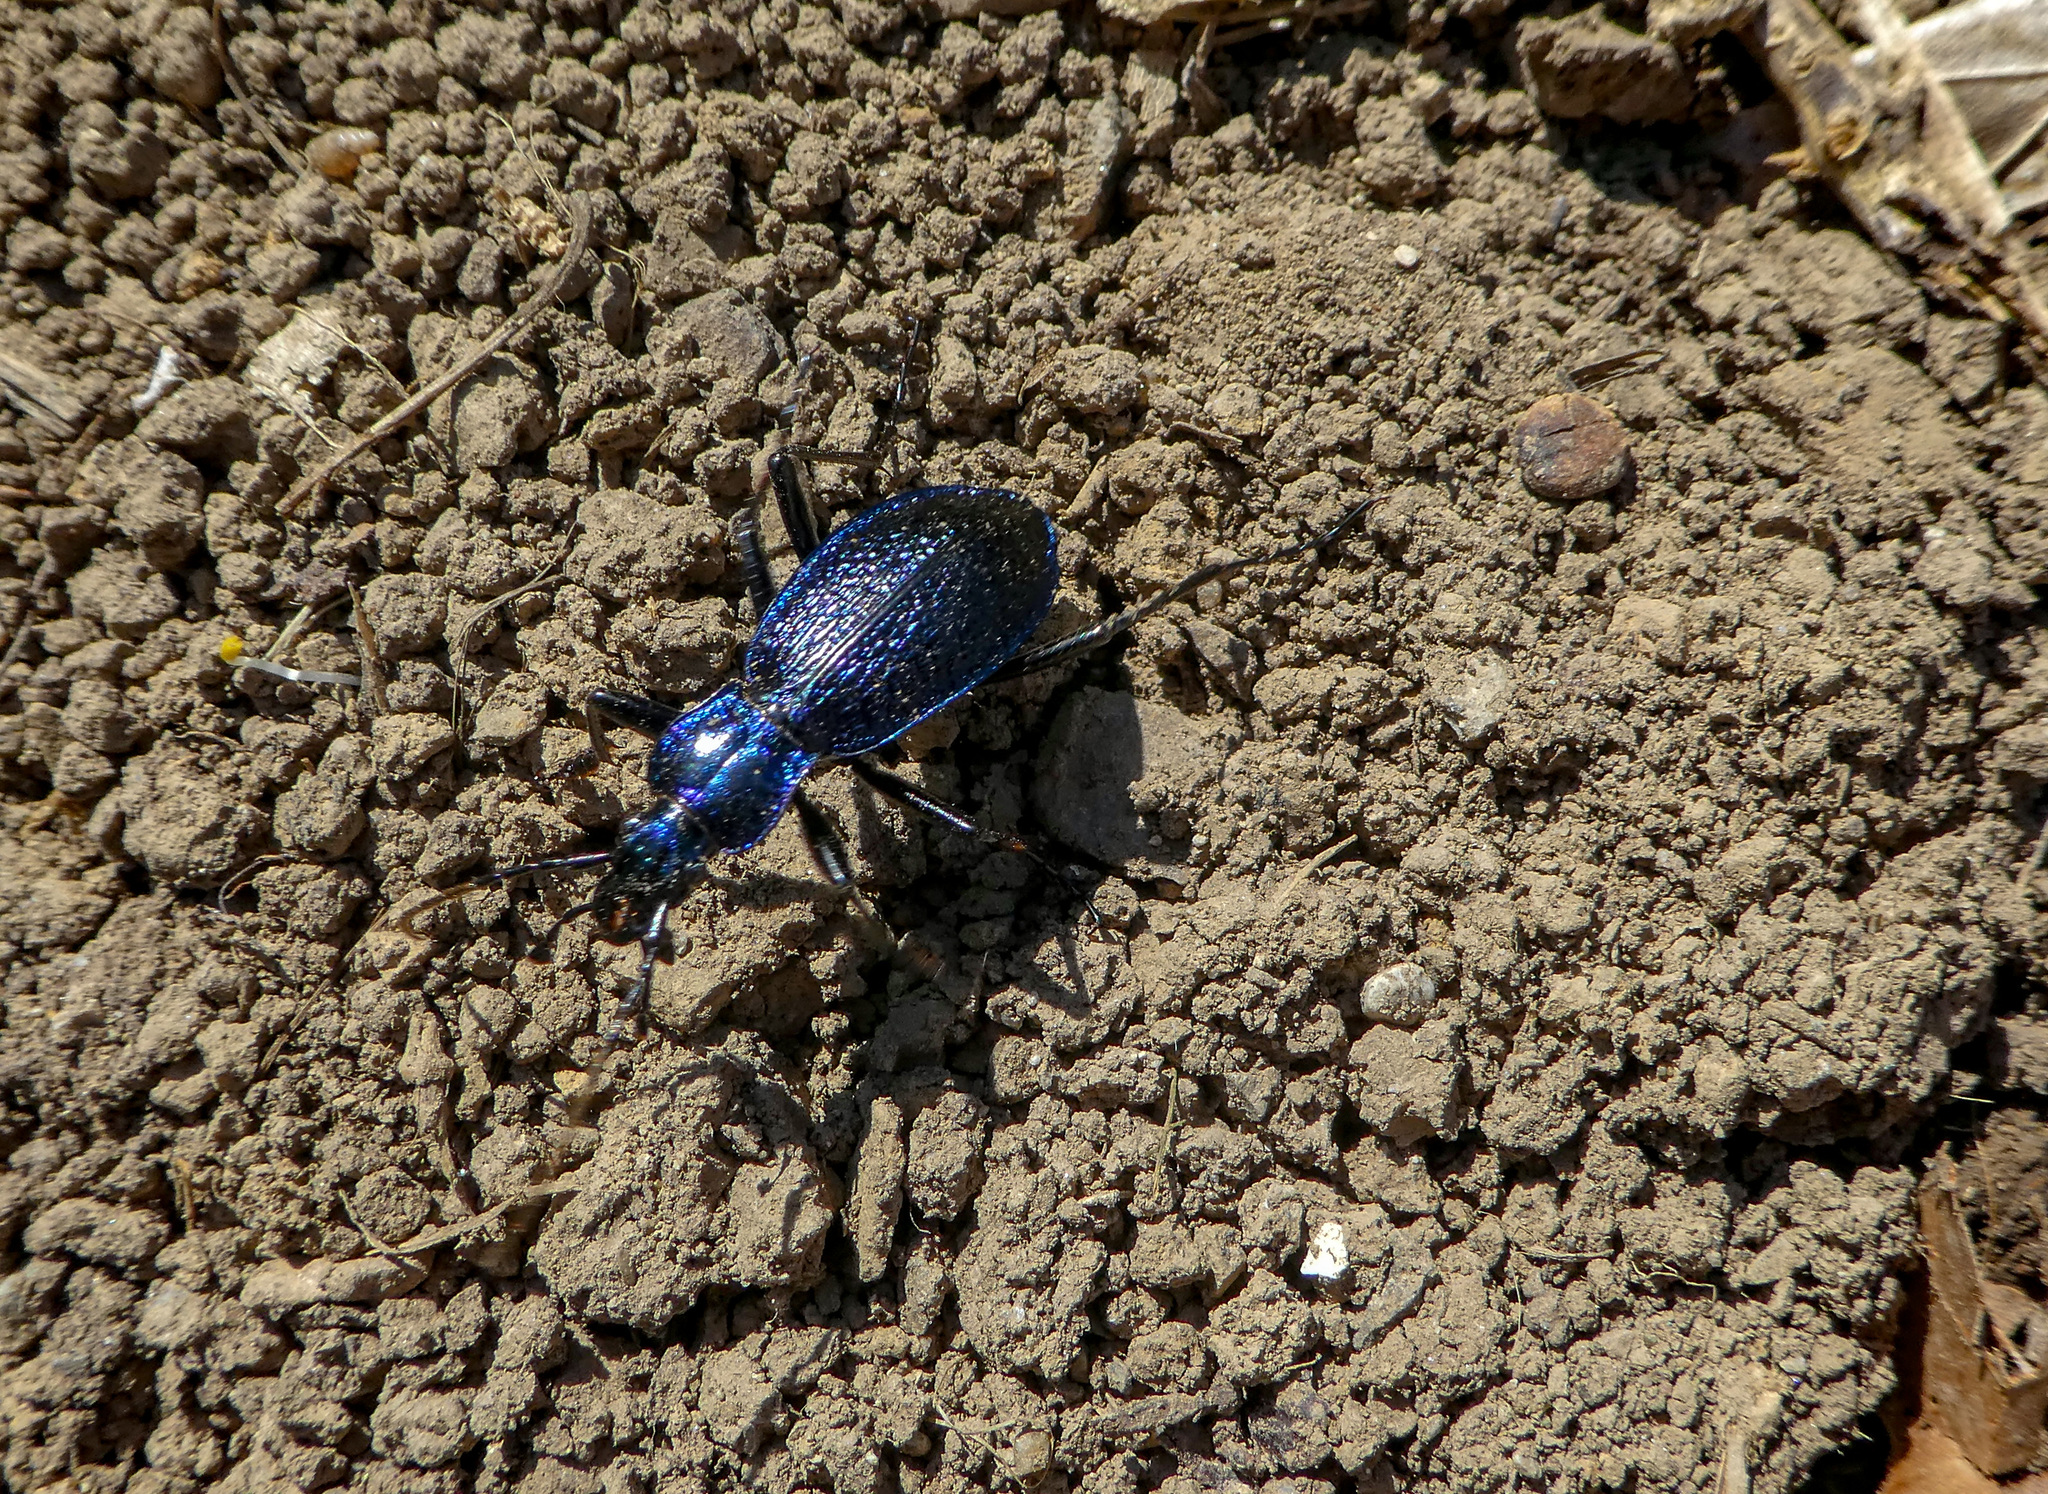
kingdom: Animalia
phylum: Arthropoda
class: Insecta
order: Coleoptera
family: Carabidae
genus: Carabus
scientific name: Carabus intricatus
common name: Blue ground beetle
